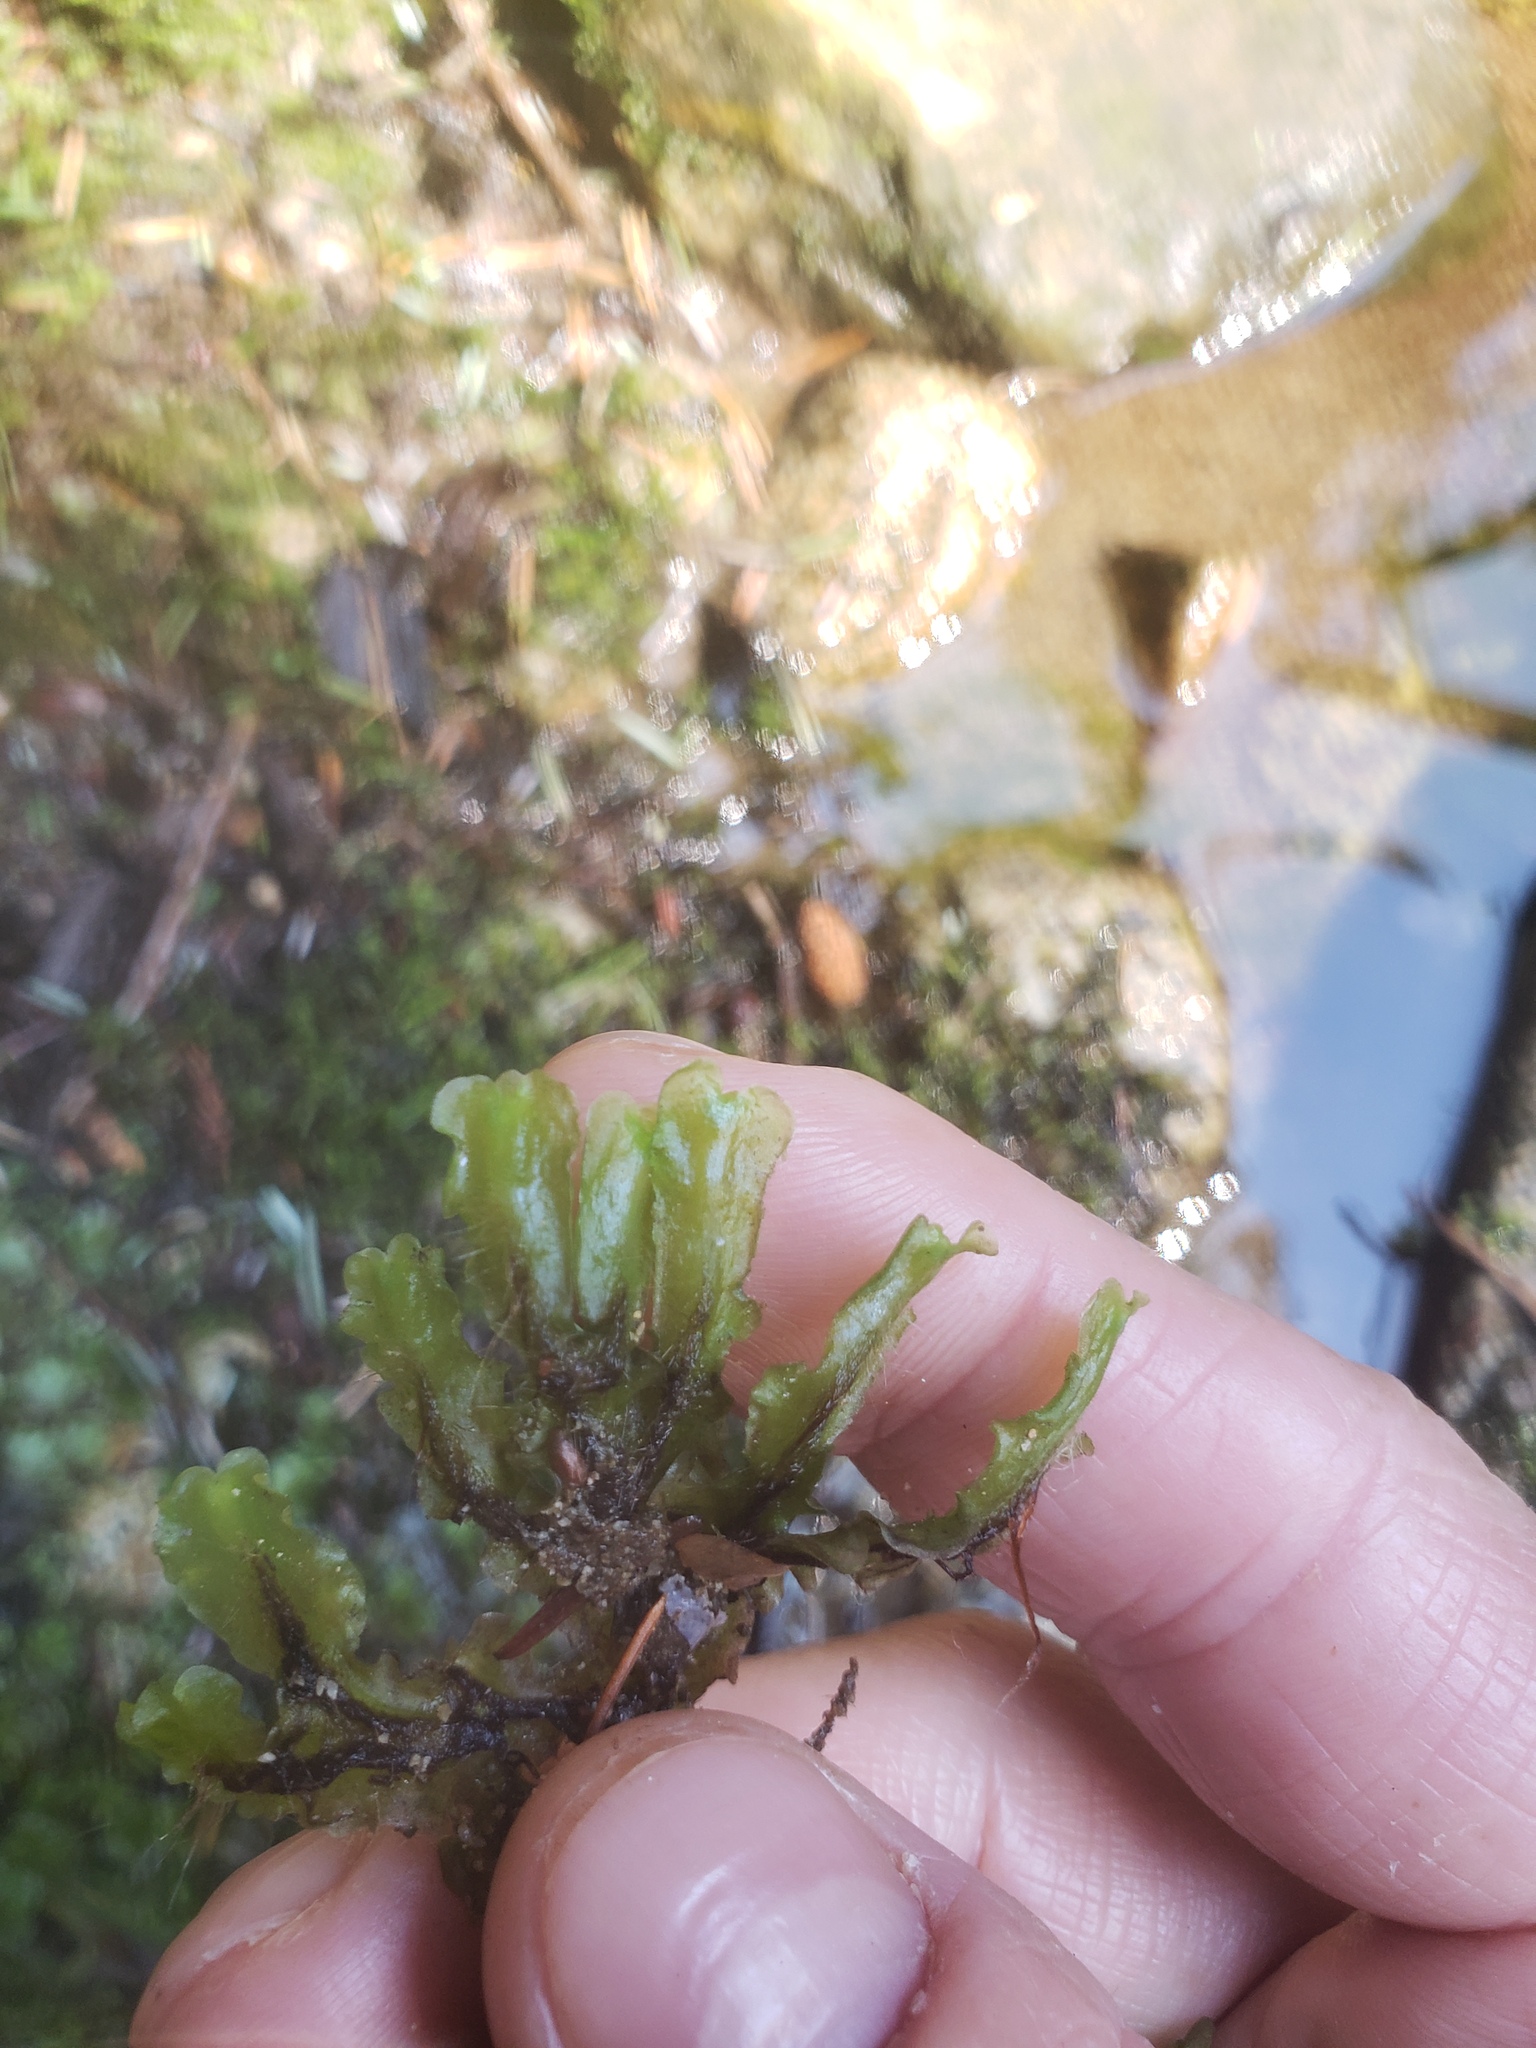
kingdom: Plantae
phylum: Marchantiophyta
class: Jungermanniopsida
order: Pelliales
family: Pelliaceae
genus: Pellia
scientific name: Pellia neesiana
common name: Nees  pellia
